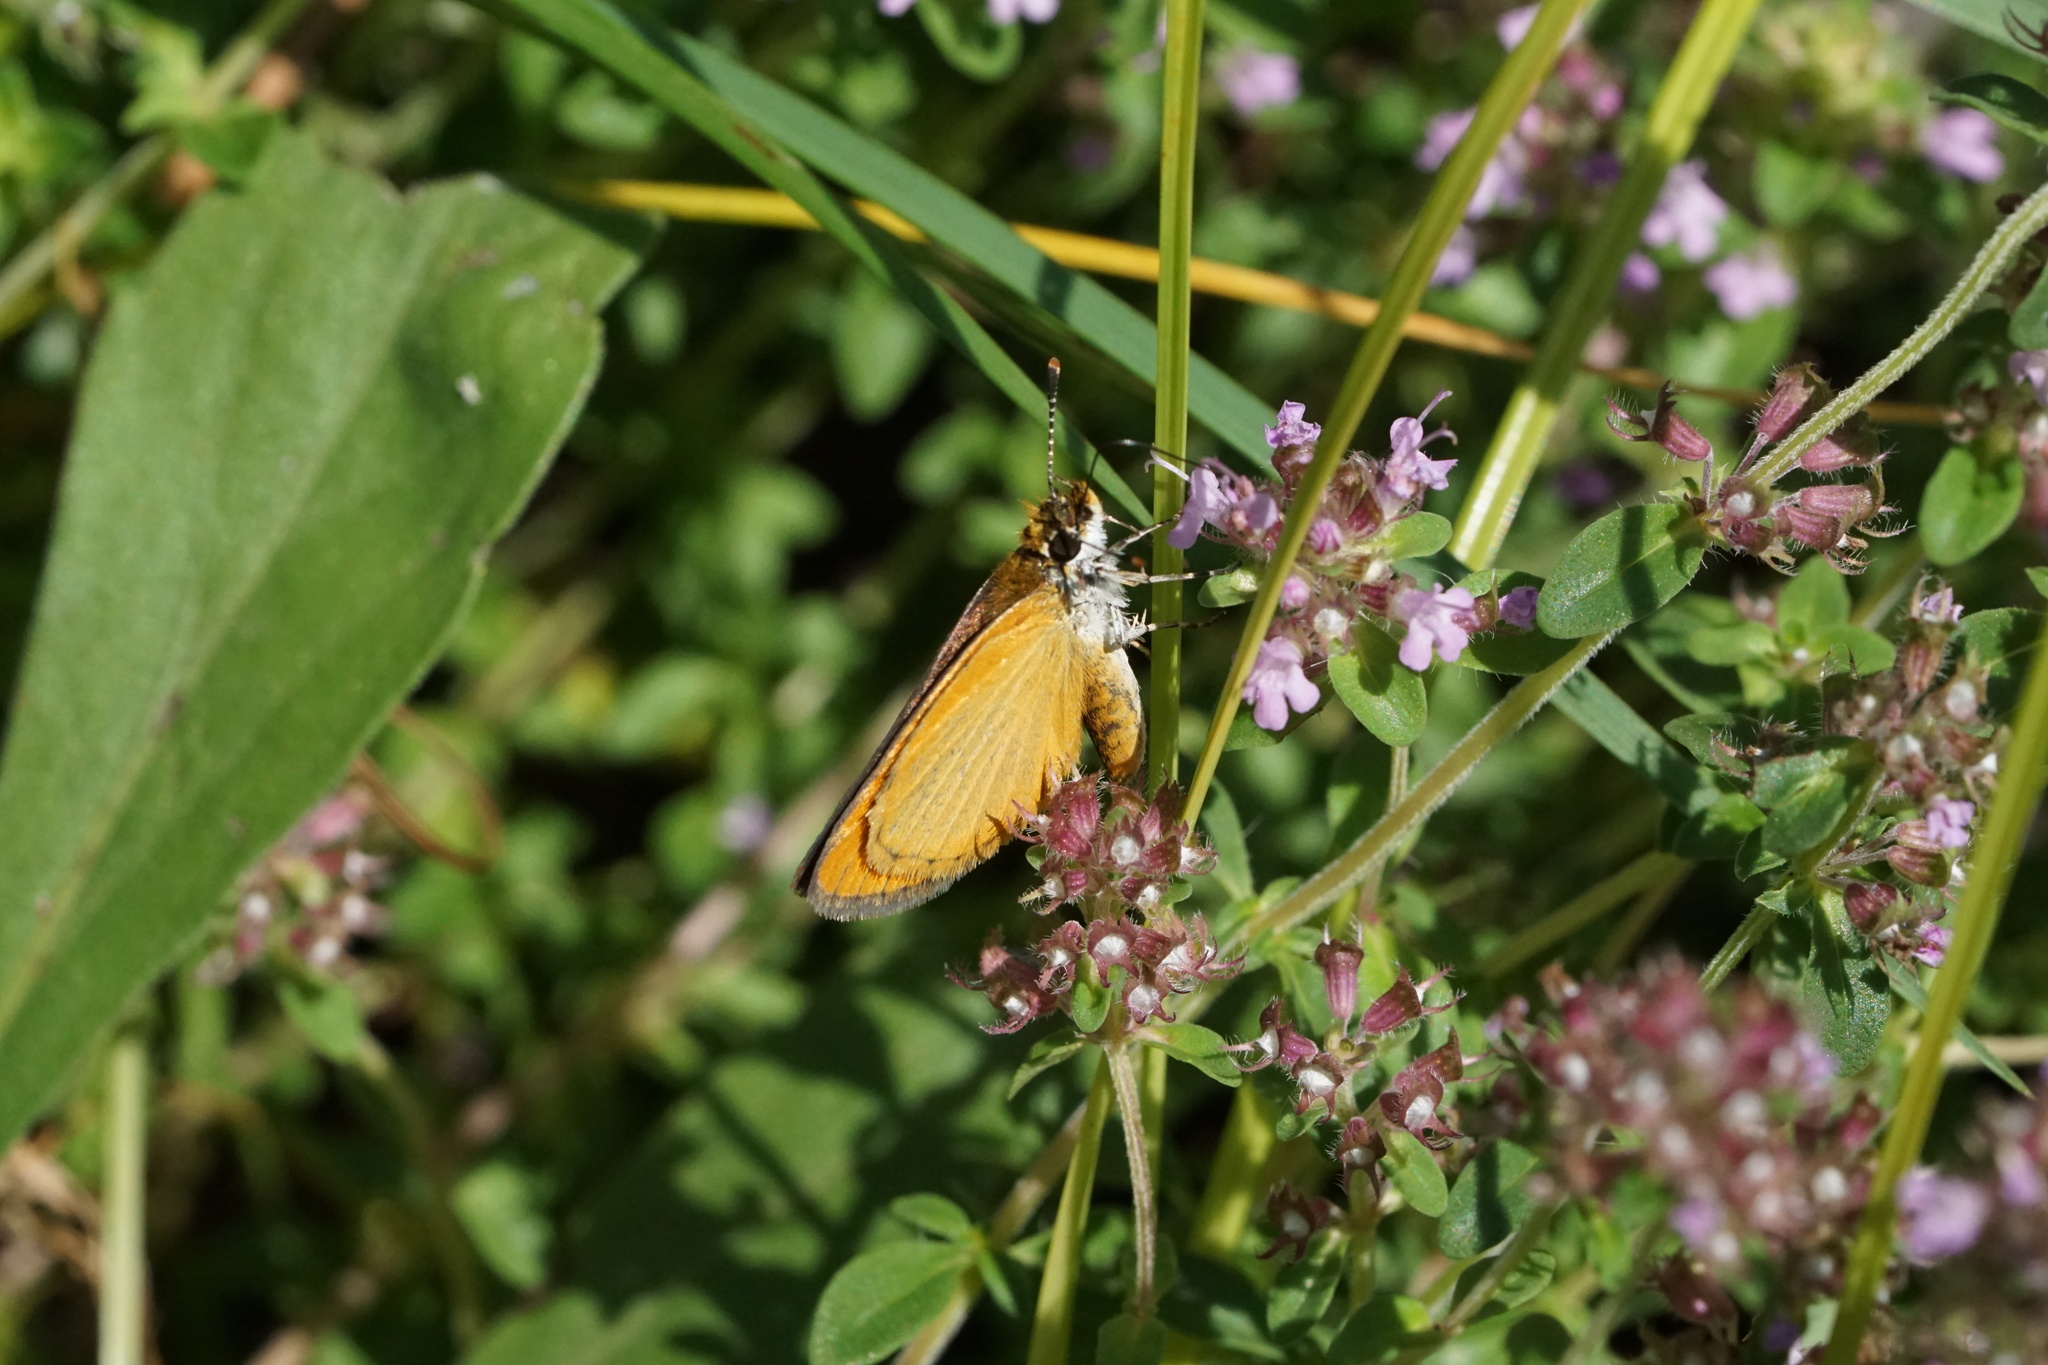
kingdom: Animalia
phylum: Arthropoda
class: Insecta
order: Lepidoptera
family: Hesperiidae
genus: Ancyloxypha
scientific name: Ancyloxypha numitor
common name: Least skipper
